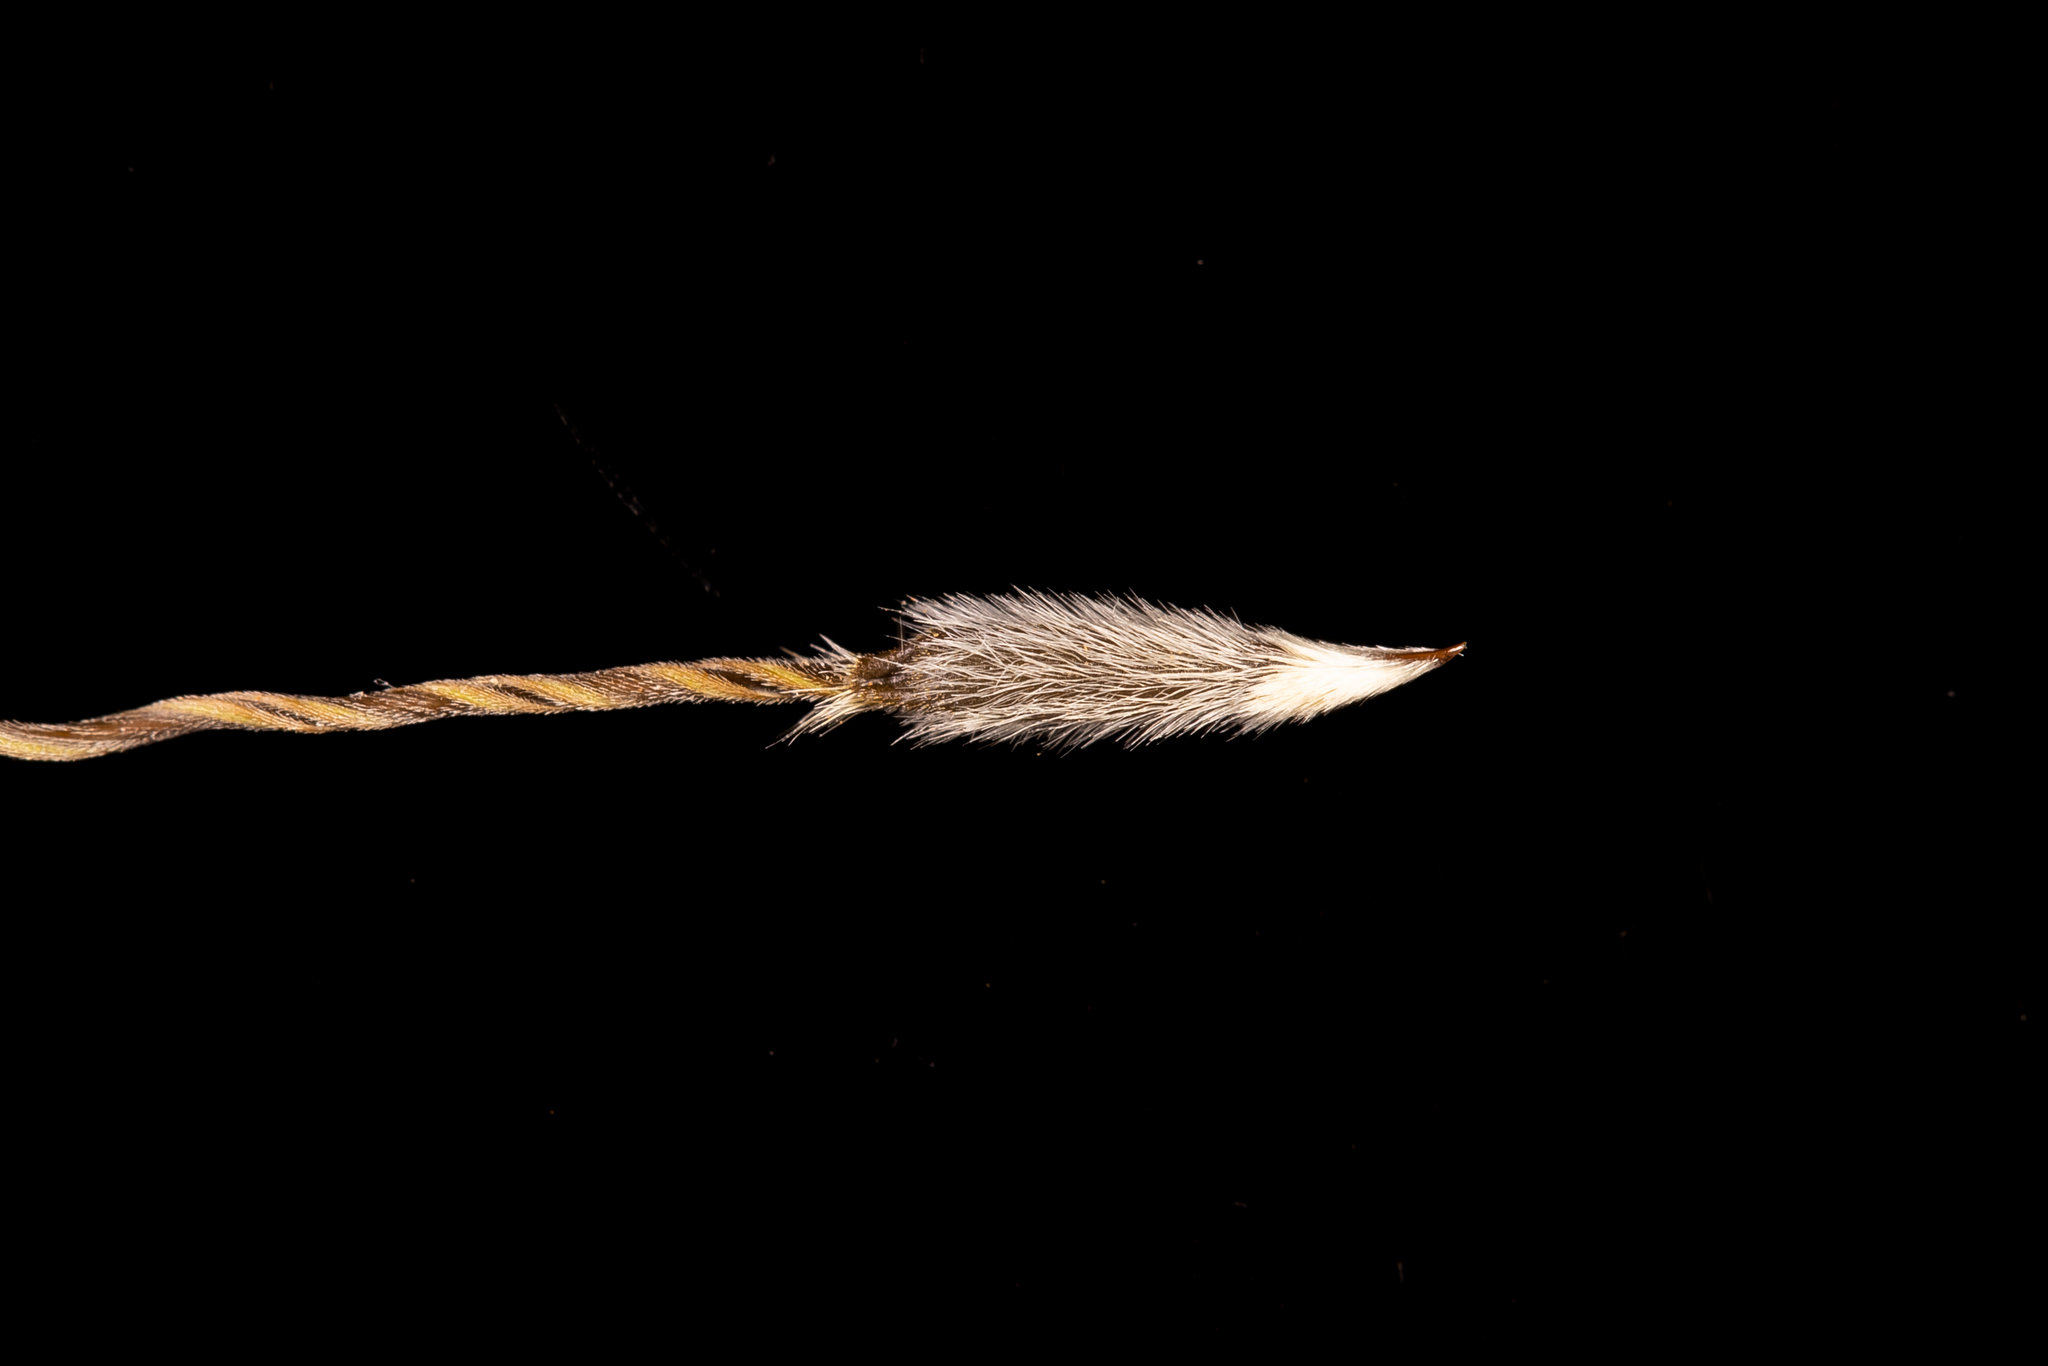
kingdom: Plantae
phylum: Tracheophyta
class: Liliopsida
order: Poales
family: Poaceae
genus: Austrostipa
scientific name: Austrostipa setacea
